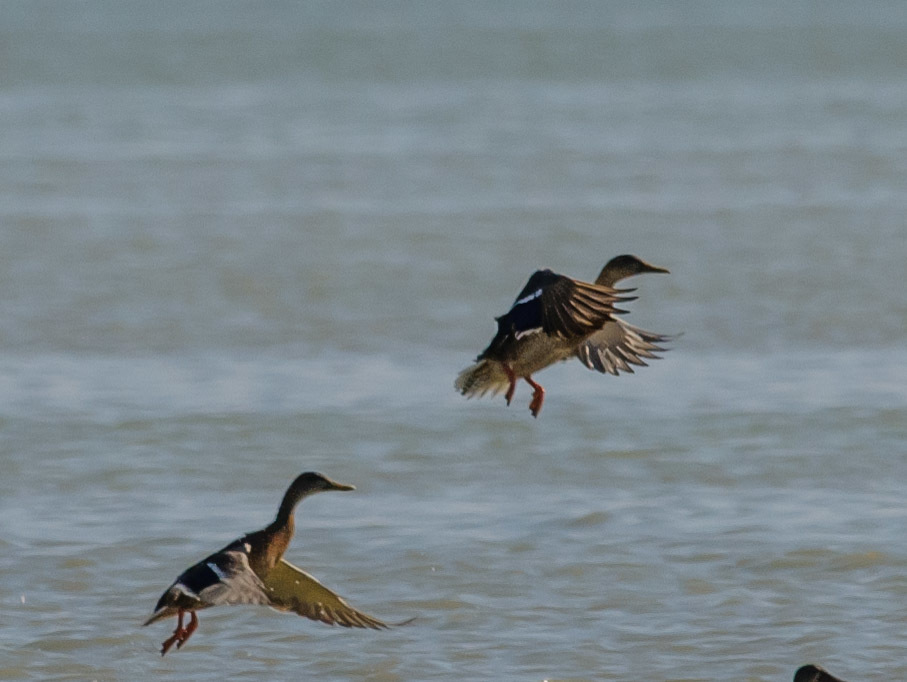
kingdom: Animalia
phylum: Chordata
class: Aves
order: Anseriformes
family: Anatidae
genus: Anas
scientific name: Anas platyrhynchos
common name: Mallard
